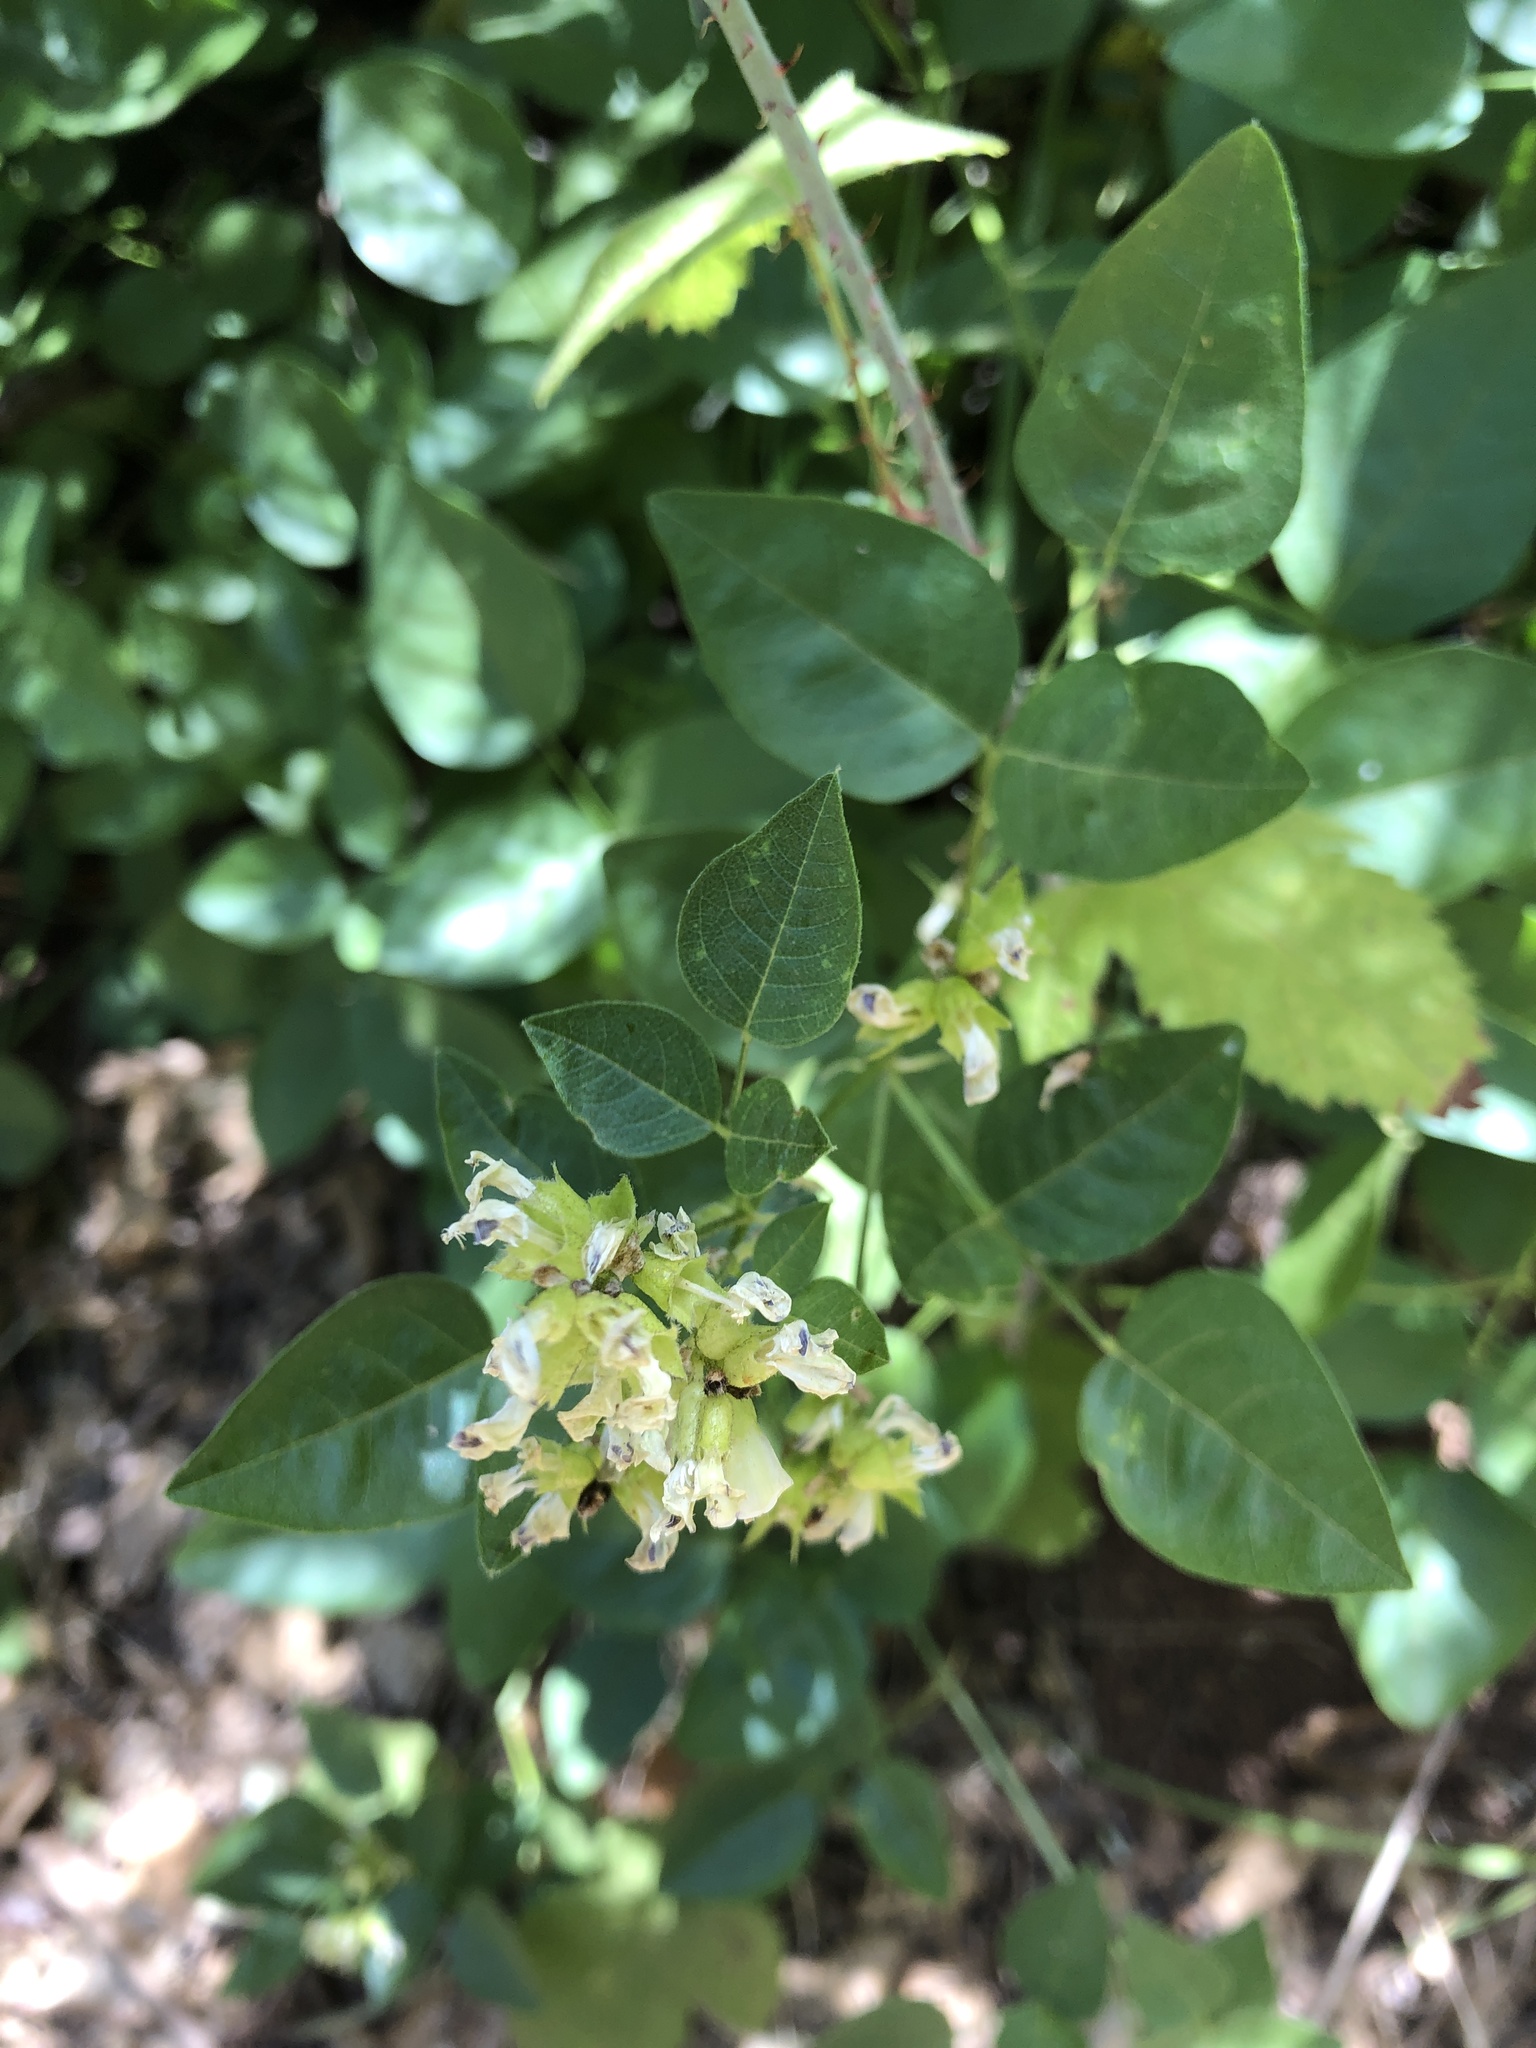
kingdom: Plantae
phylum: Tracheophyta
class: Magnoliopsida
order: Fabales
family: Fabaceae
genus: Rupertia
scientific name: Rupertia physodes
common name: California-tea
